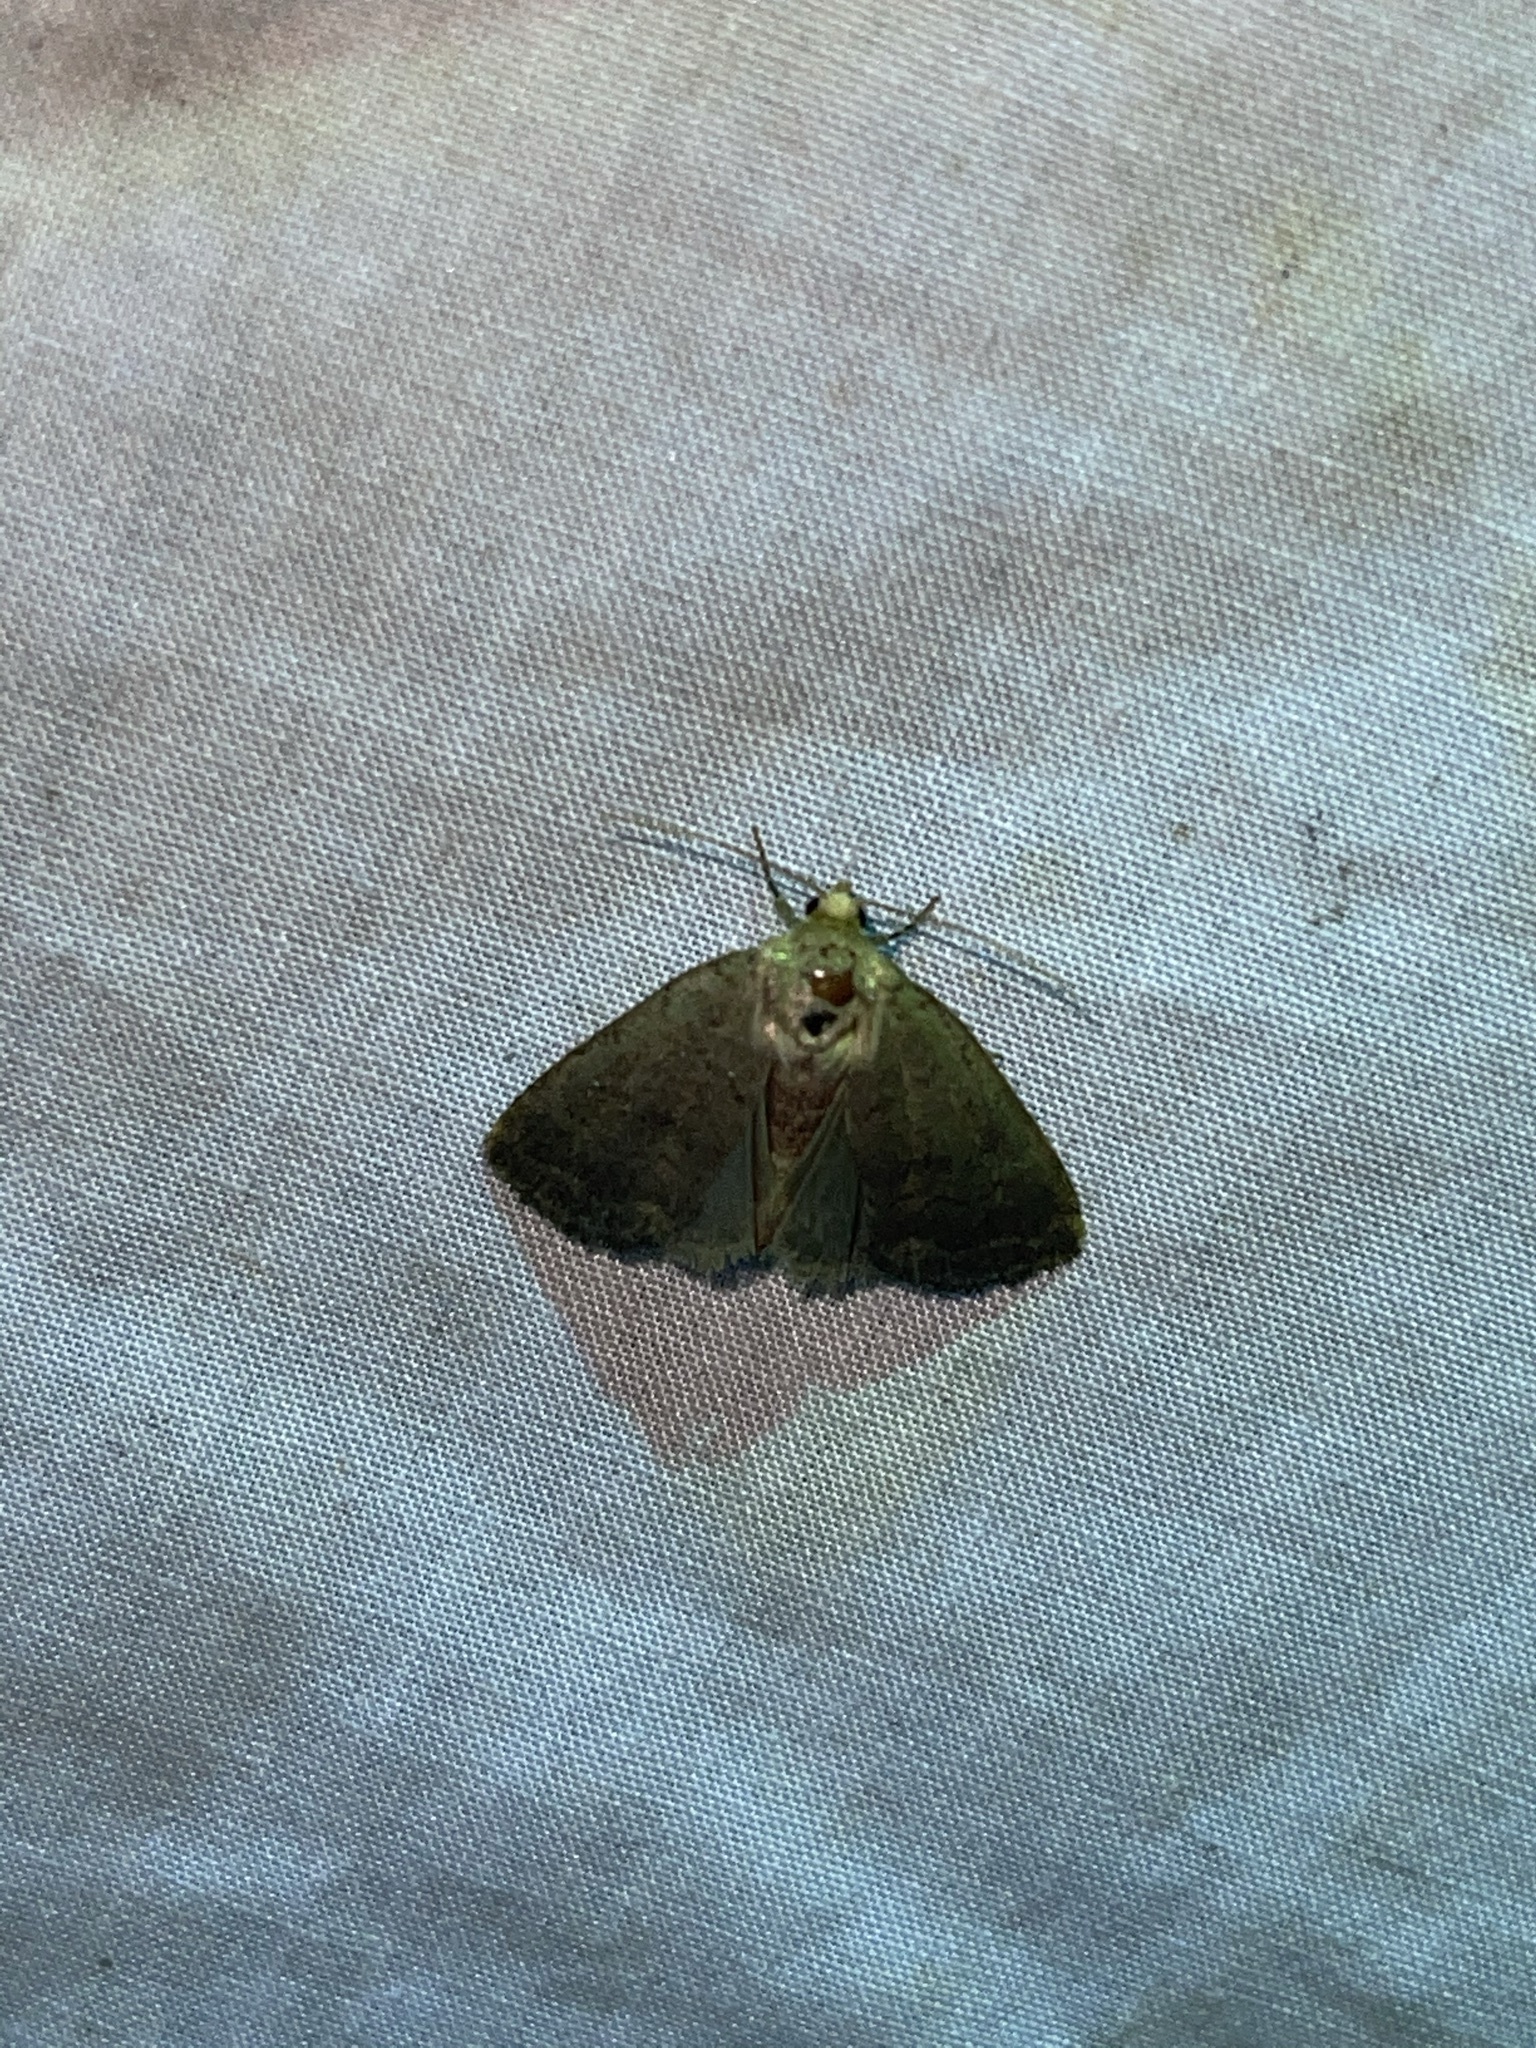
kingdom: Animalia
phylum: Arthropoda
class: Insecta
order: Lepidoptera
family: Noctuidae
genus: Athetis
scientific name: Athetis tarda
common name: Slowpoke moth
